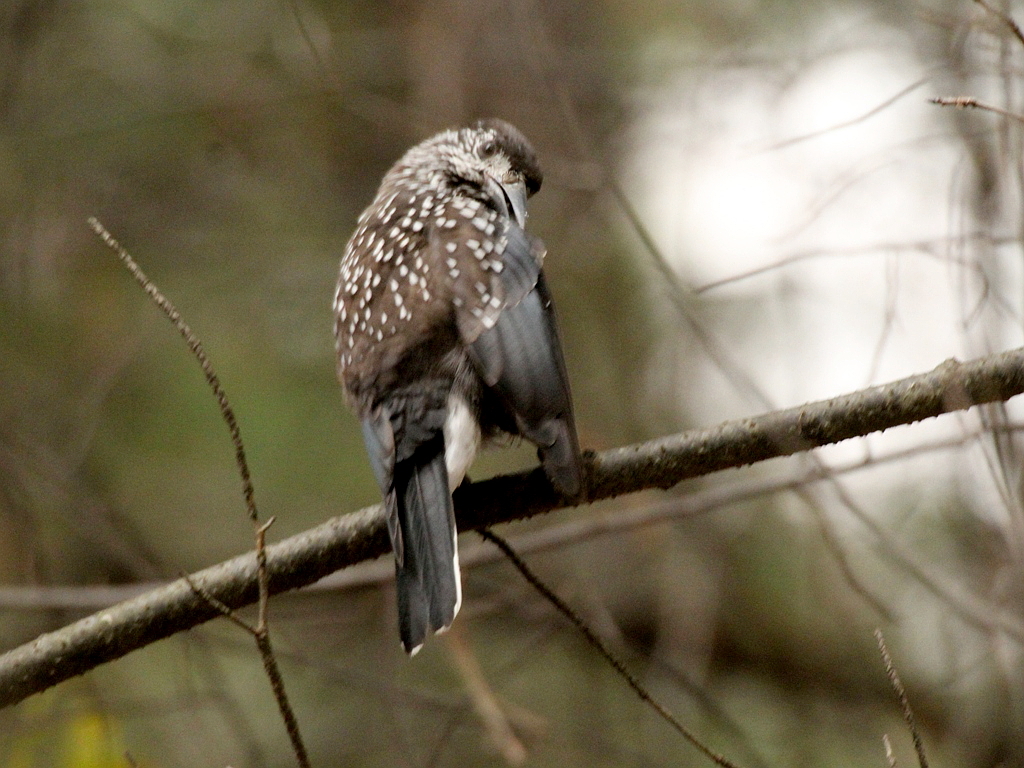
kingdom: Animalia
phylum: Chordata
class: Aves
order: Passeriformes
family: Corvidae
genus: Nucifraga
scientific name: Nucifraga caryocatactes
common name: Spotted nutcracker
